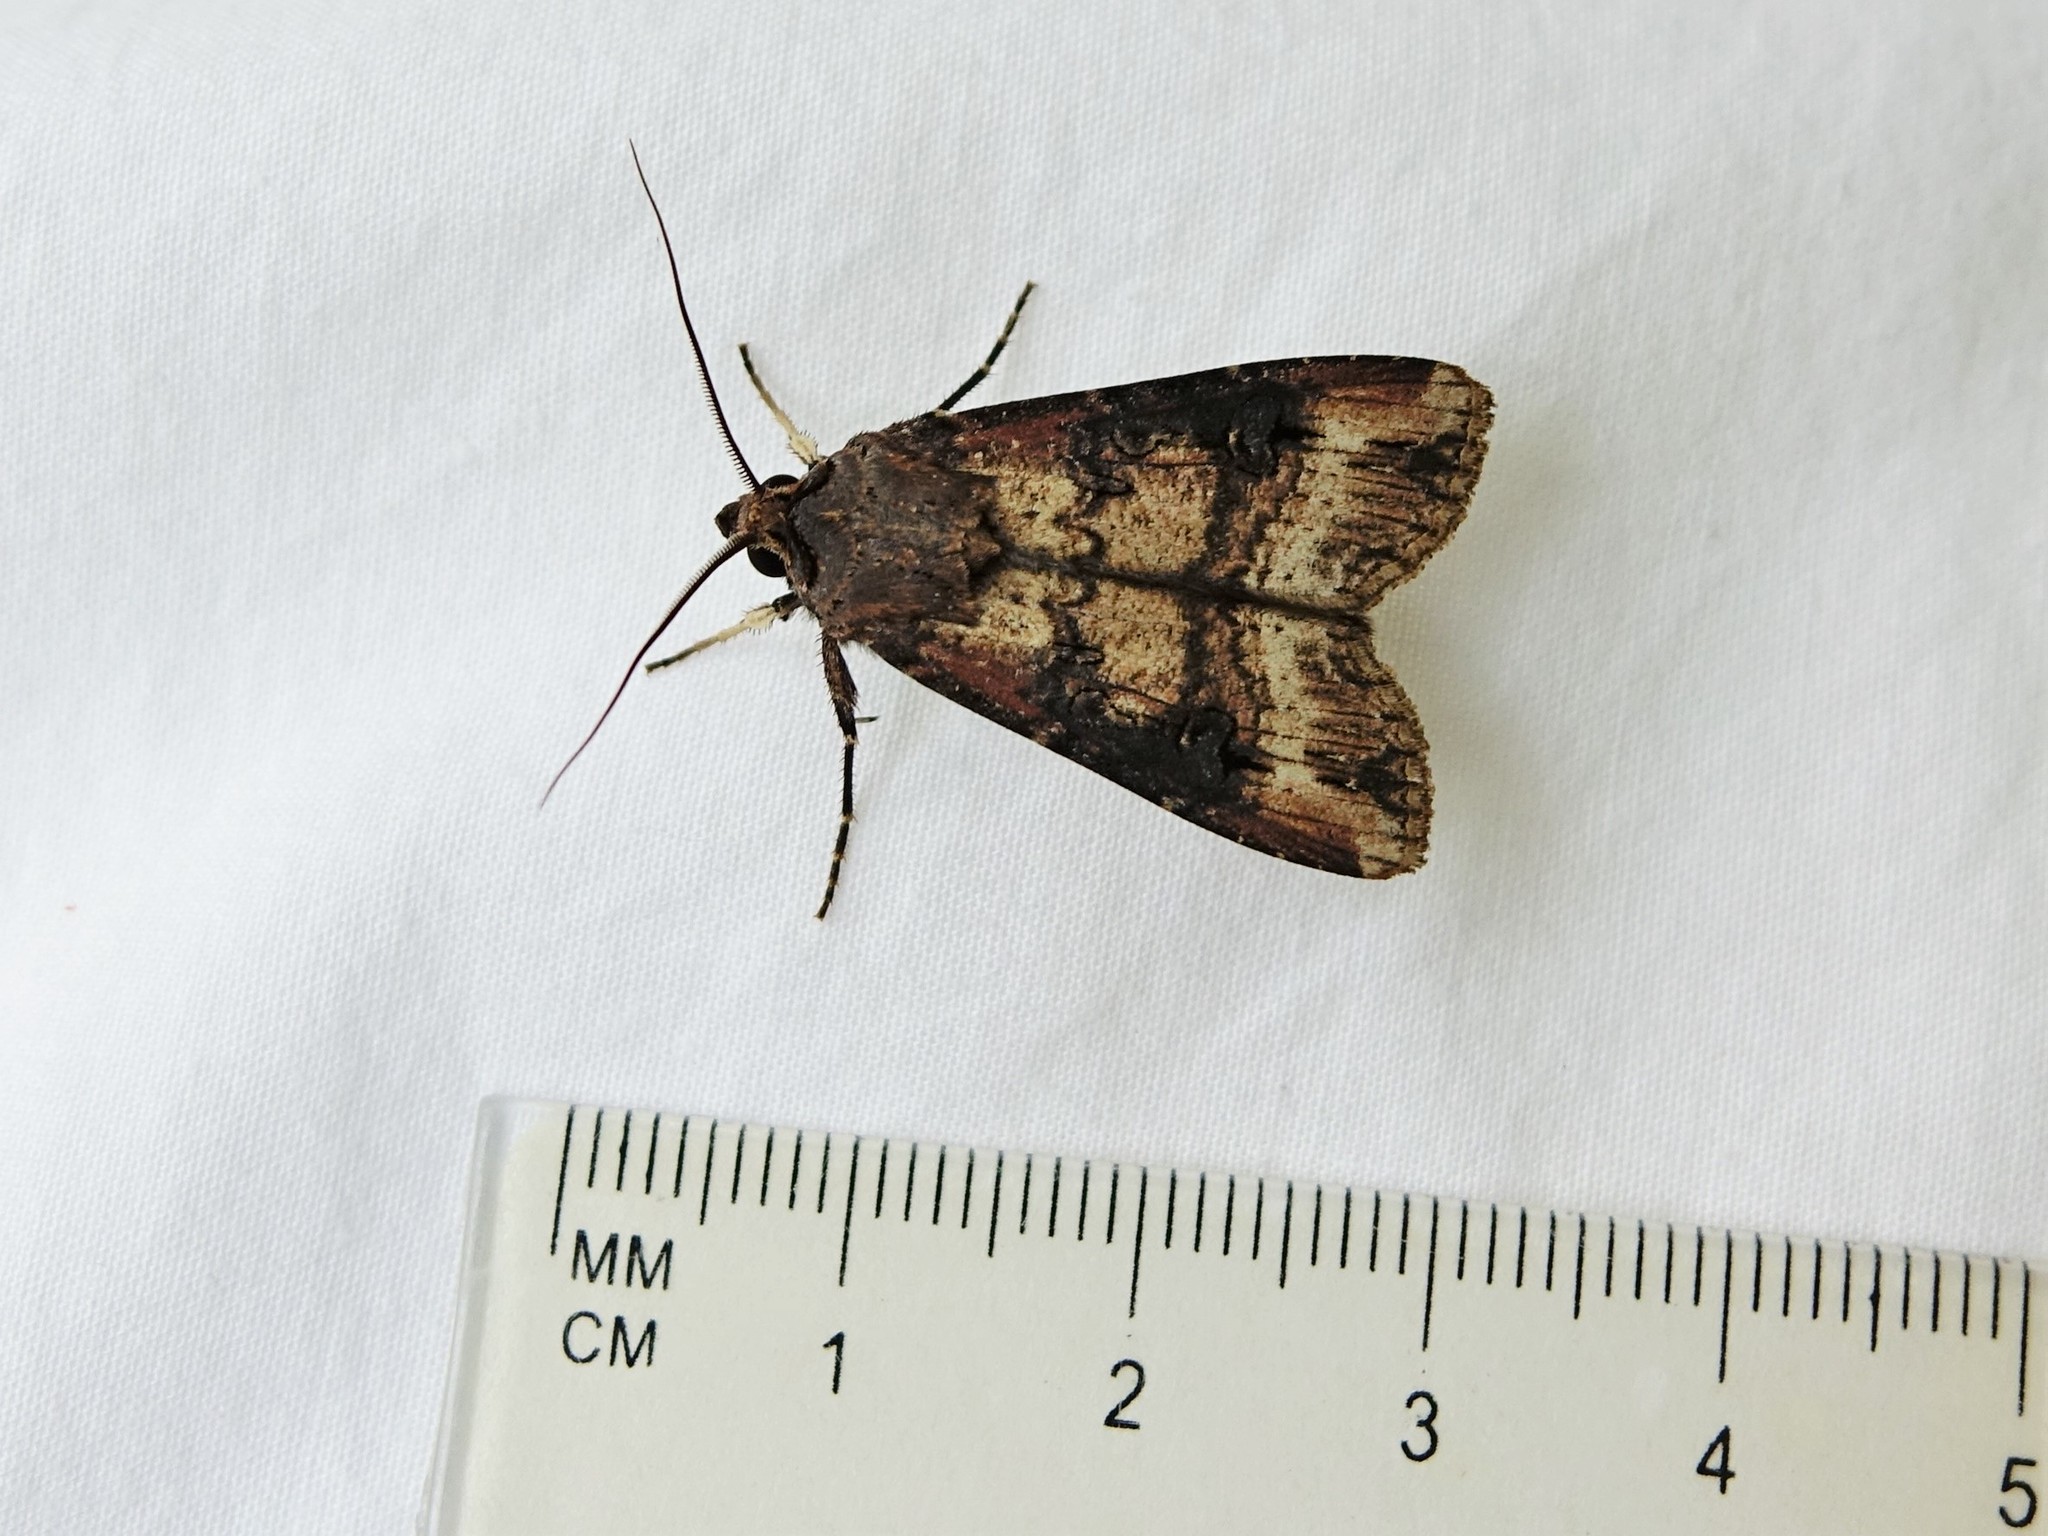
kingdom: Animalia
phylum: Arthropoda
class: Insecta
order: Lepidoptera
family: Noctuidae
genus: Agrotis
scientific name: Agrotis ipsilon
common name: Dark sword-grass
